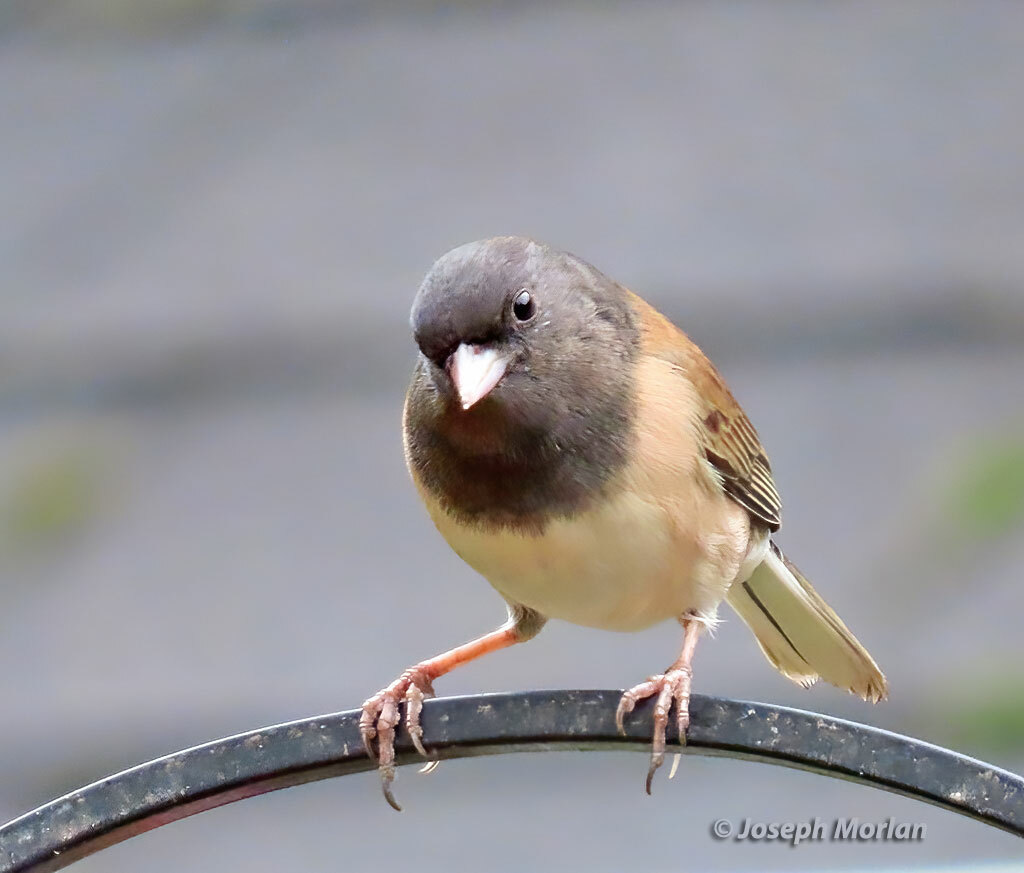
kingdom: Animalia
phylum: Chordata
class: Aves
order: Passeriformes
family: Passerellidae
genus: Junco
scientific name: Junco hyemalis
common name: Dark-eyed junco
